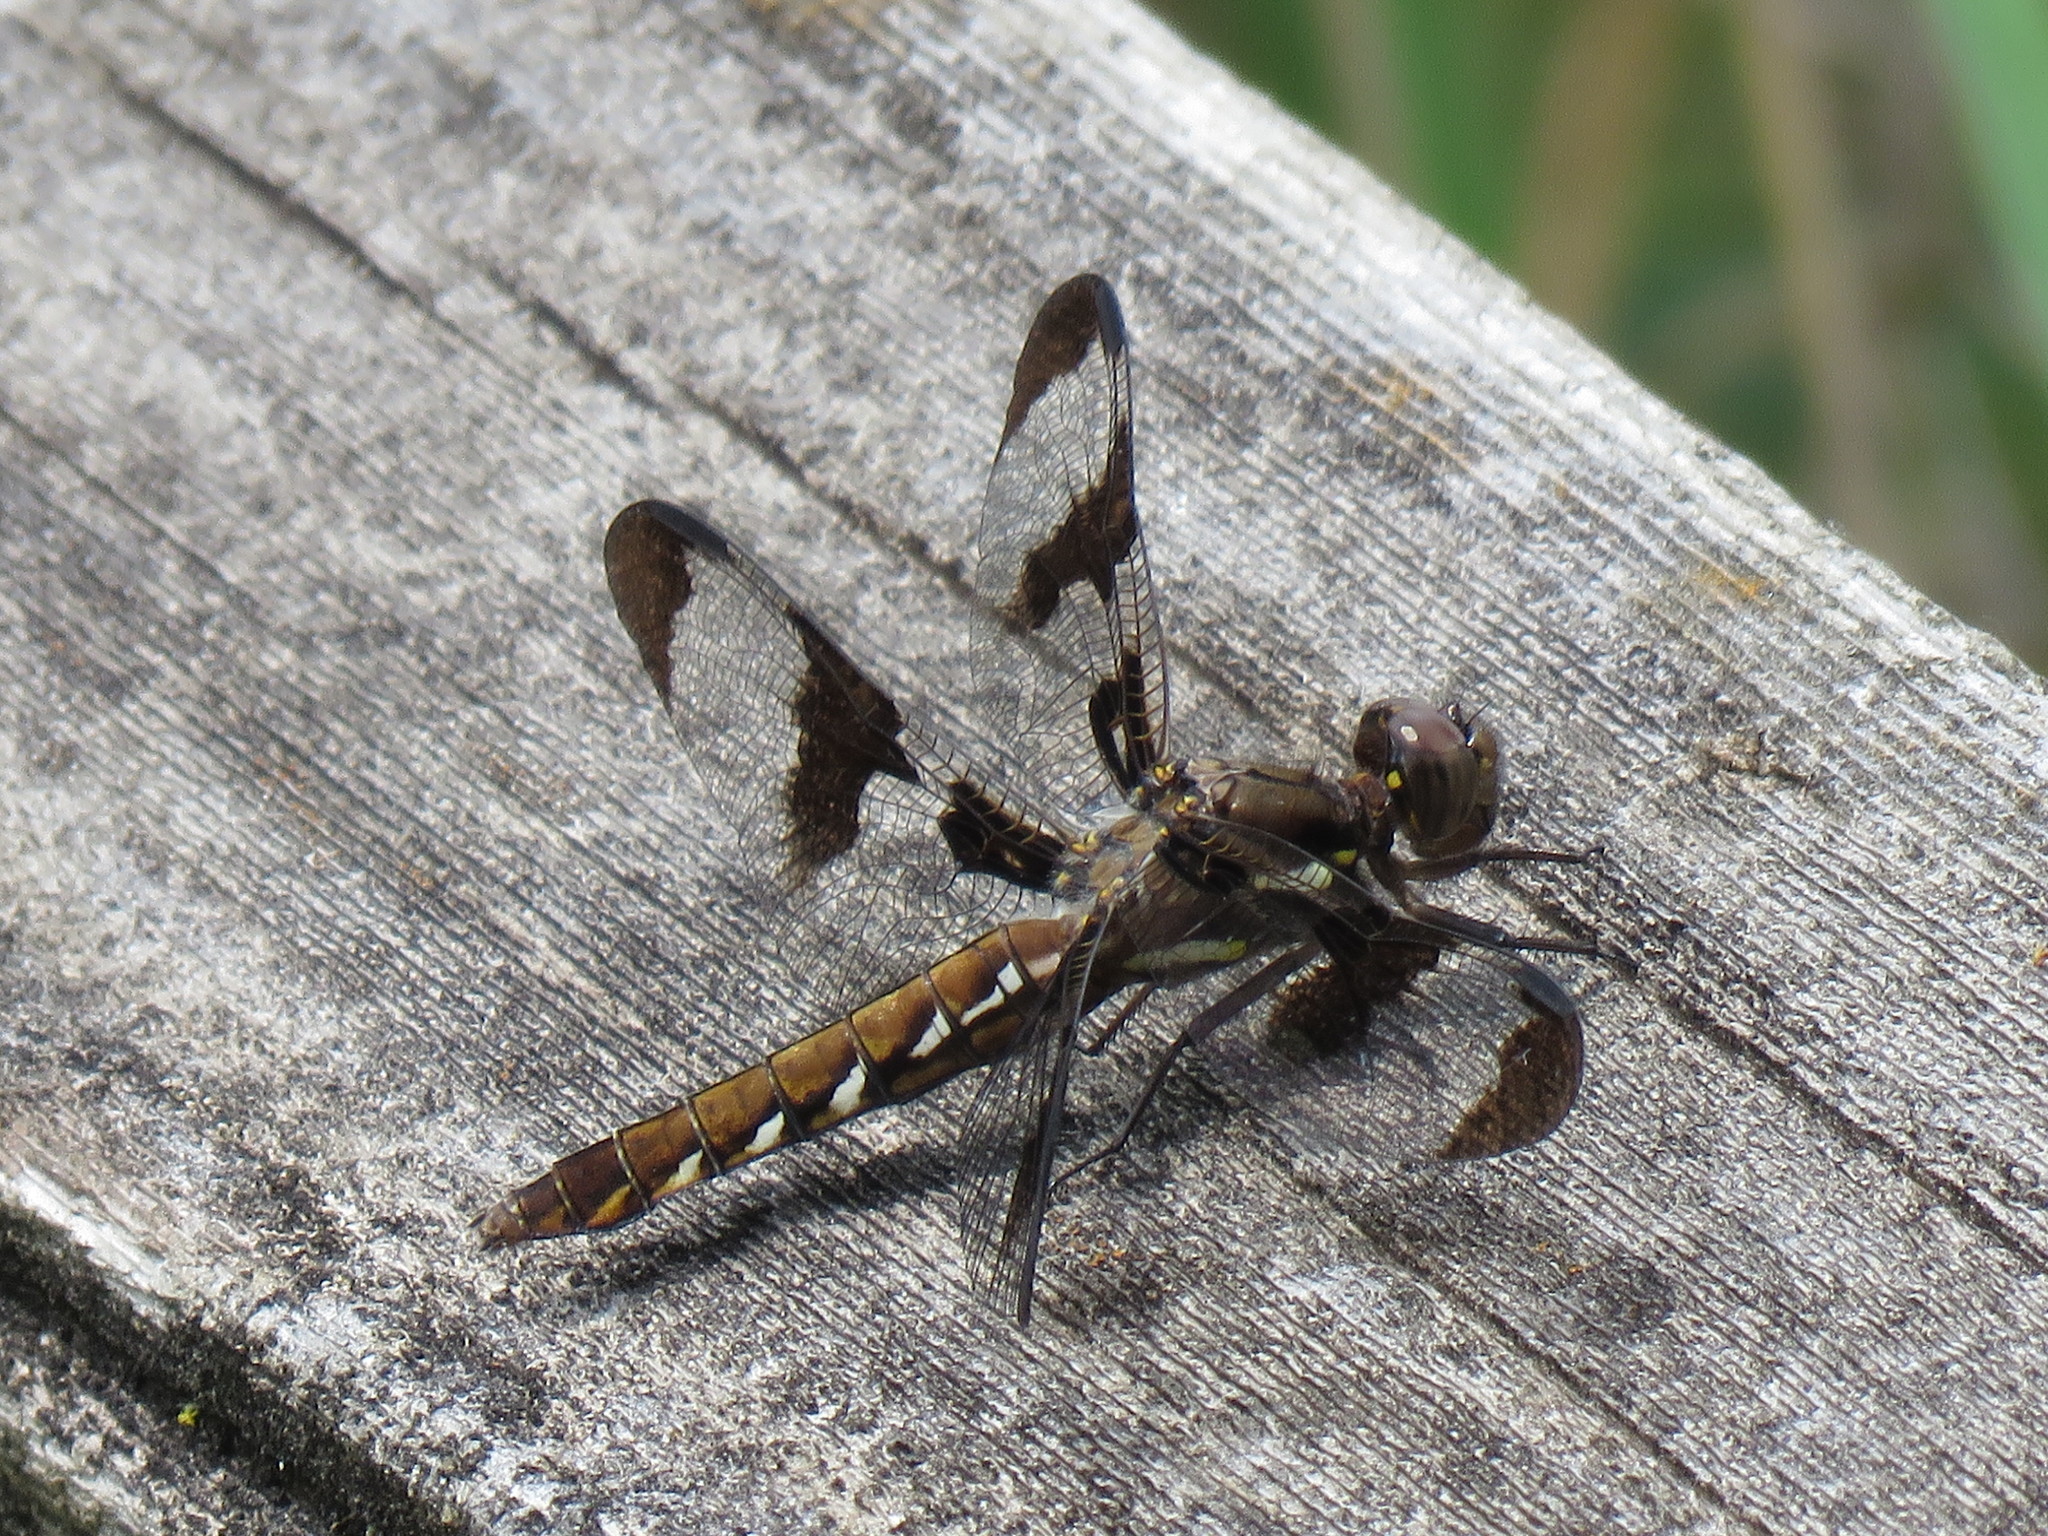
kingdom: Animalia
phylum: Arthropoda
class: Insecta
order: Odonata
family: Libellulidae
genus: Plathemis
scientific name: Plathemis lydia
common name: Common whitetail
